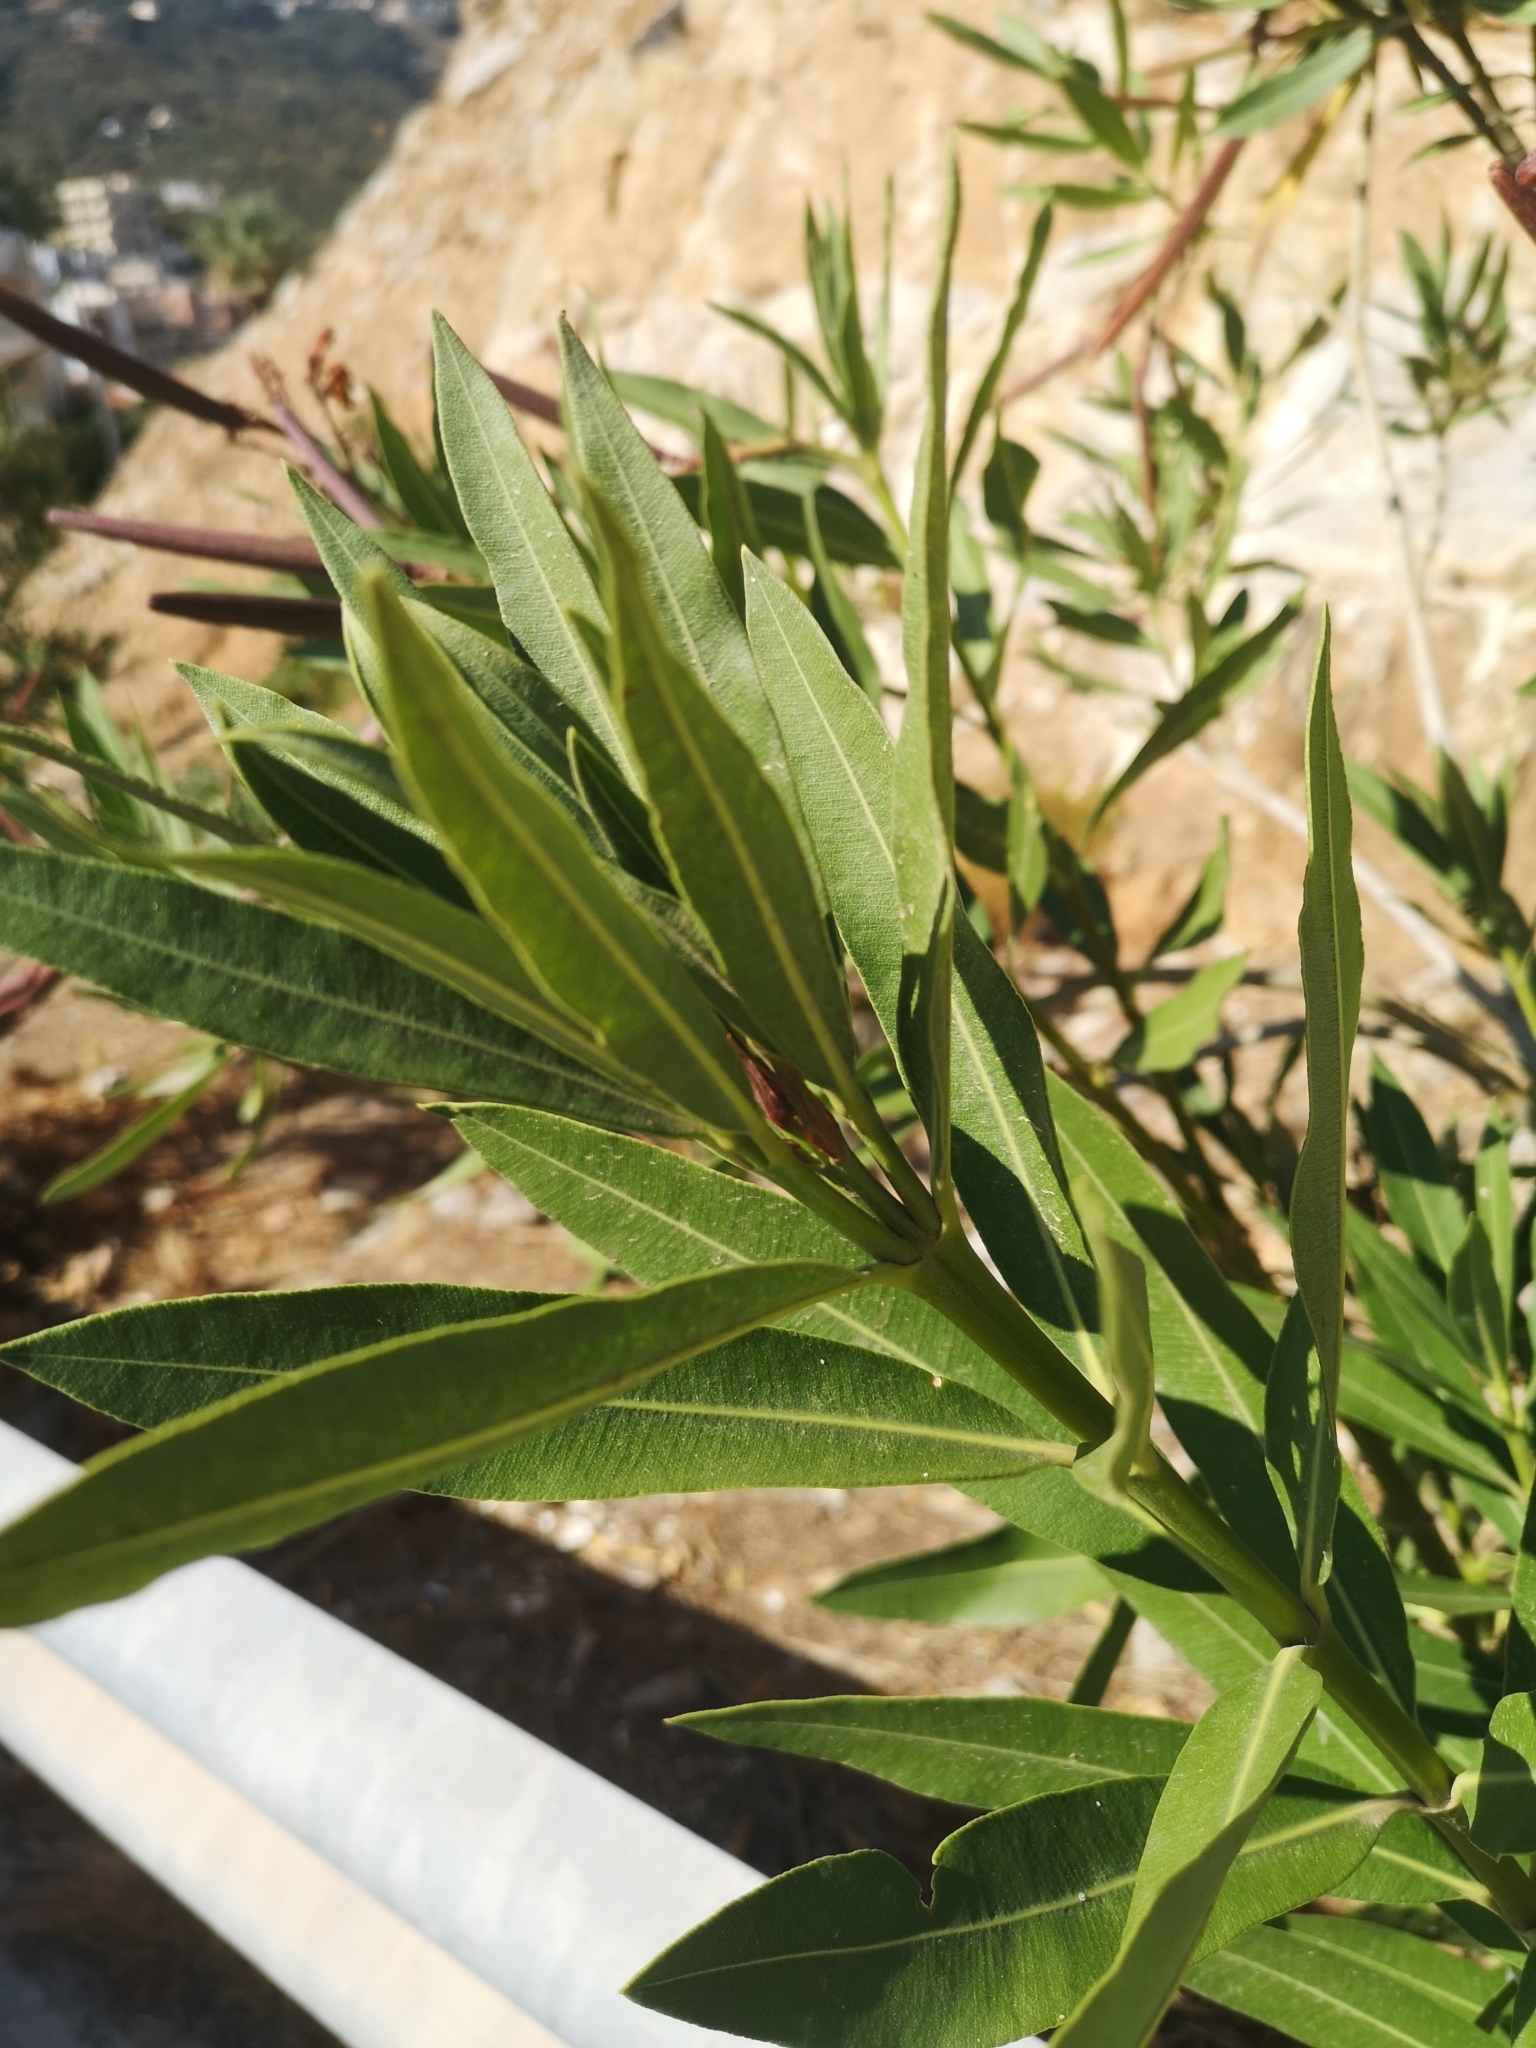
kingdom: Plantae
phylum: Tracheophyta
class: Magnoliopsida
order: Gentianales
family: Apocynaceae
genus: Nerium
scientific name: Nerium oleander
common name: Oleander
